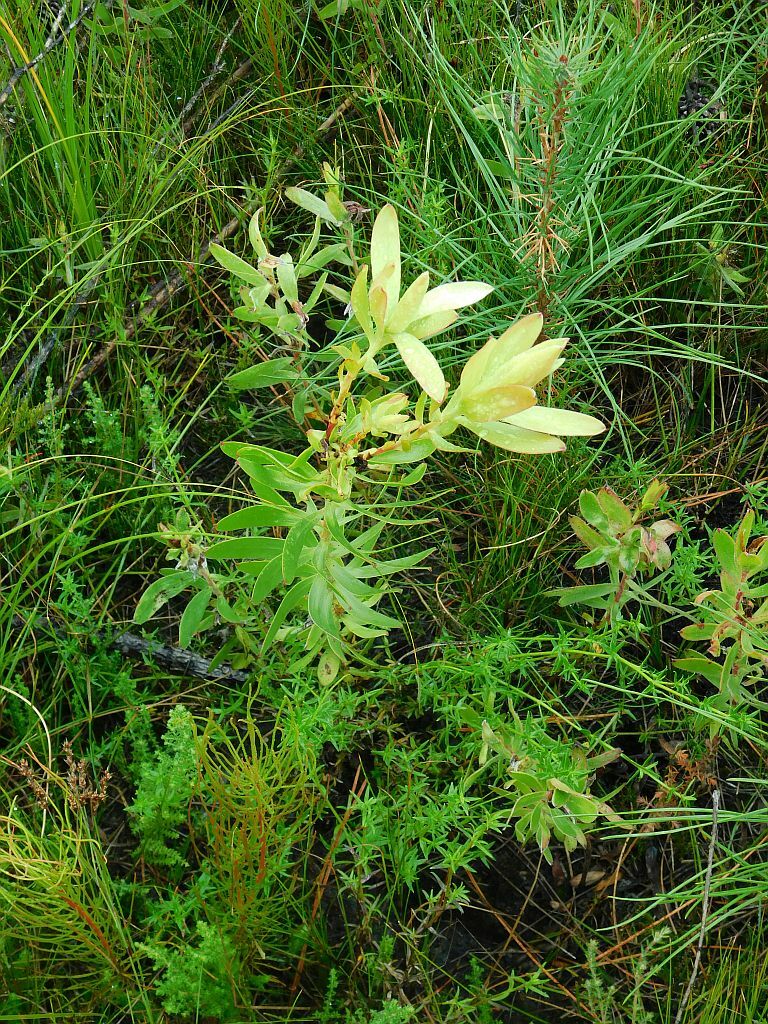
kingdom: Plantae
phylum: Tracheophyta
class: Magnoliopsida
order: Proteales
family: Proteaceae
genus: Leucadendron
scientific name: Leucadendron spissifolium
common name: Spear-leaf conebush
